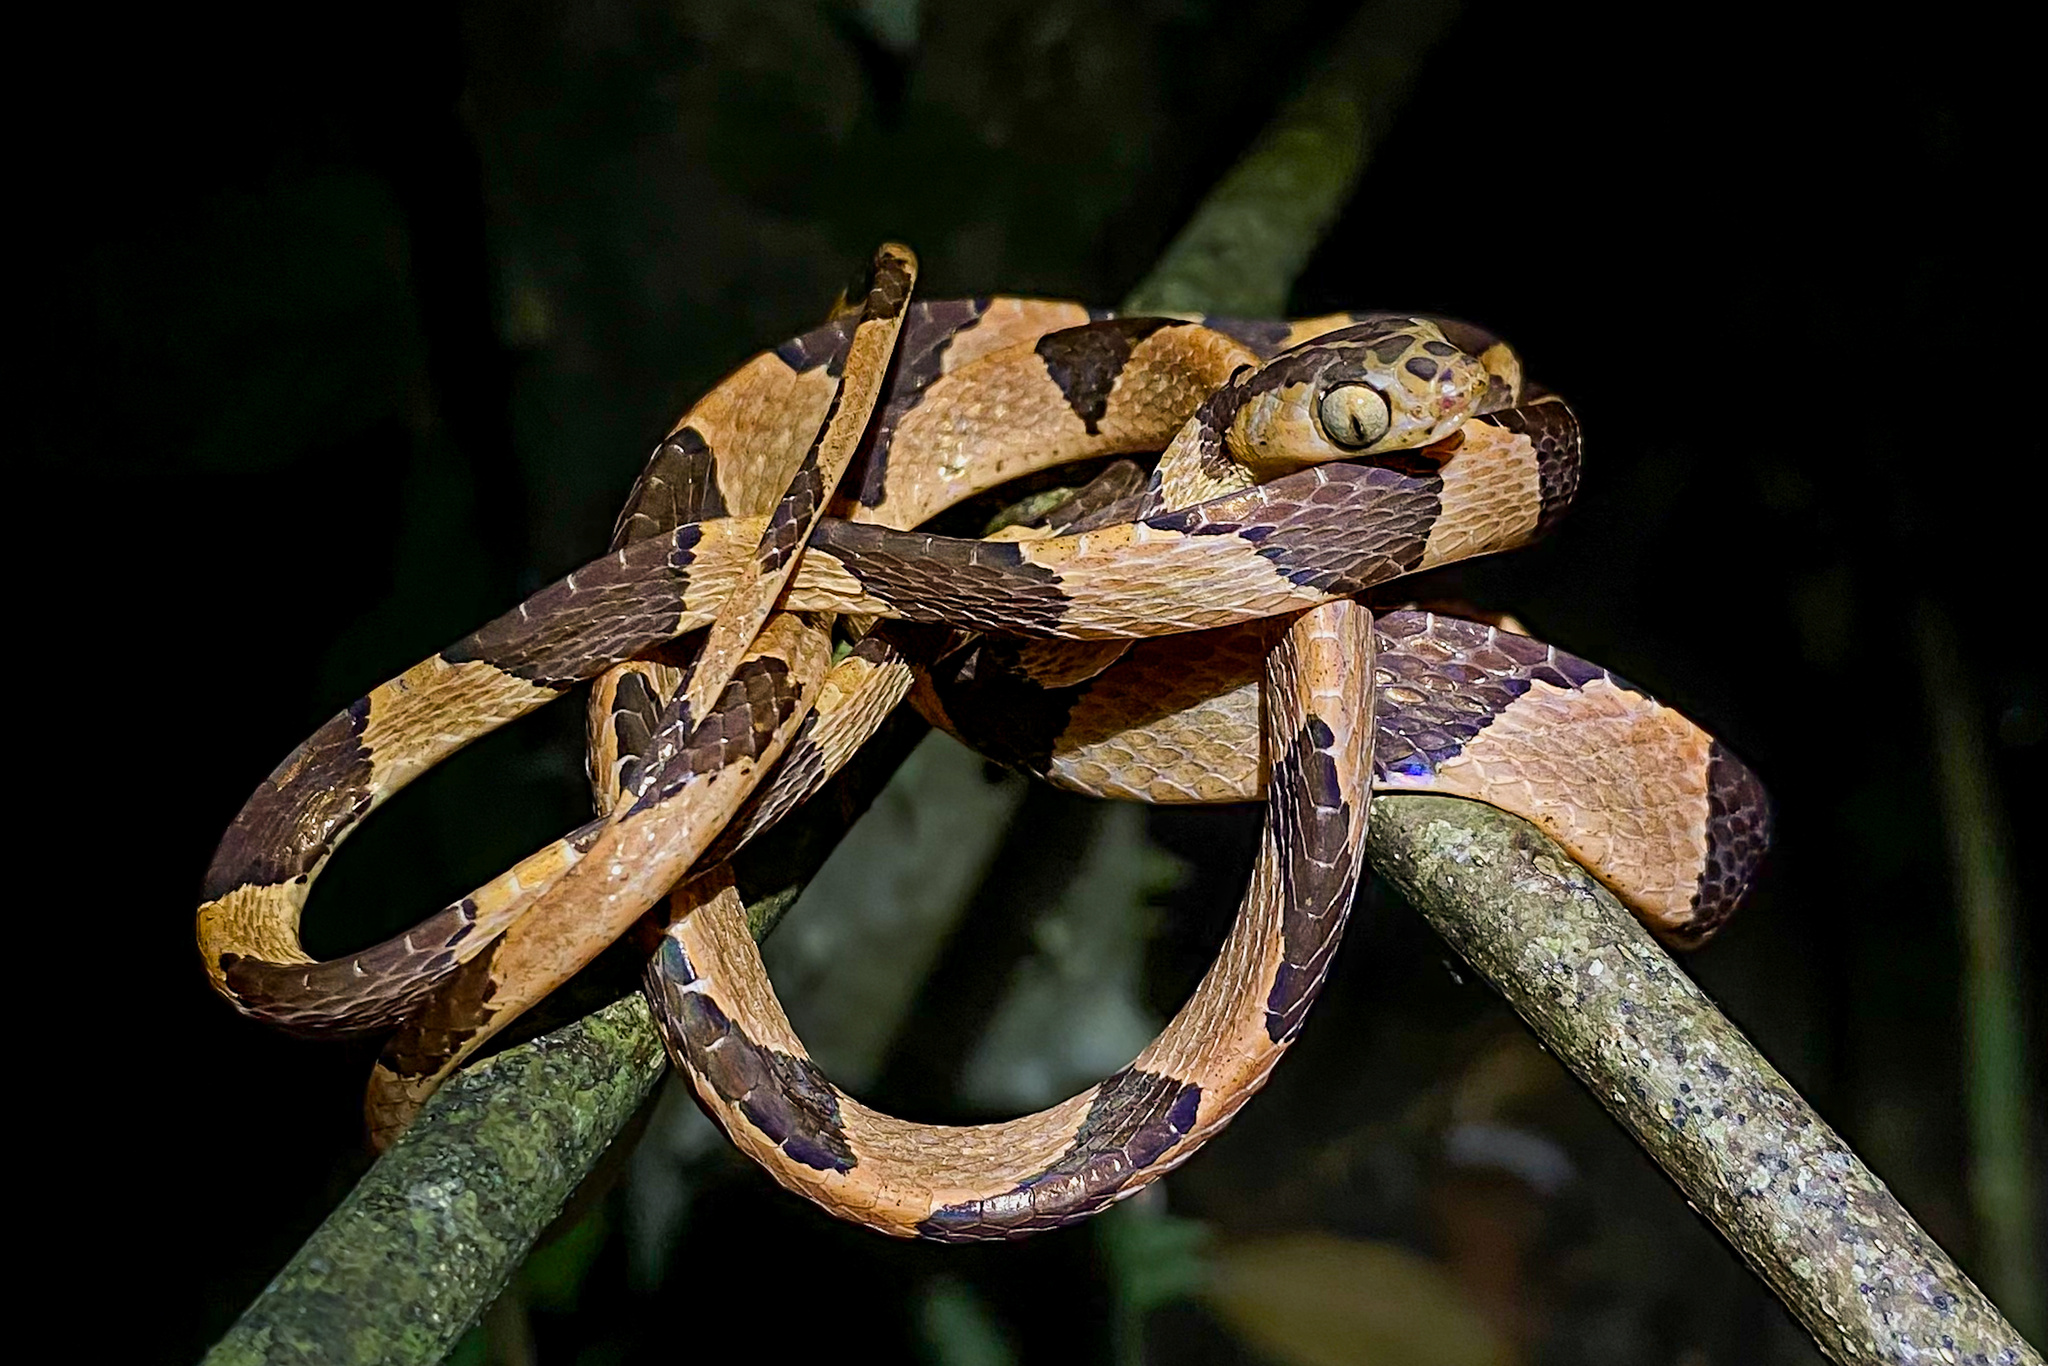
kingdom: Animalia
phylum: Chordata
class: Squamata
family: Colubridae
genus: Imantodes
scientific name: Imantodes cenchoa
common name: Blunthead tree snake
